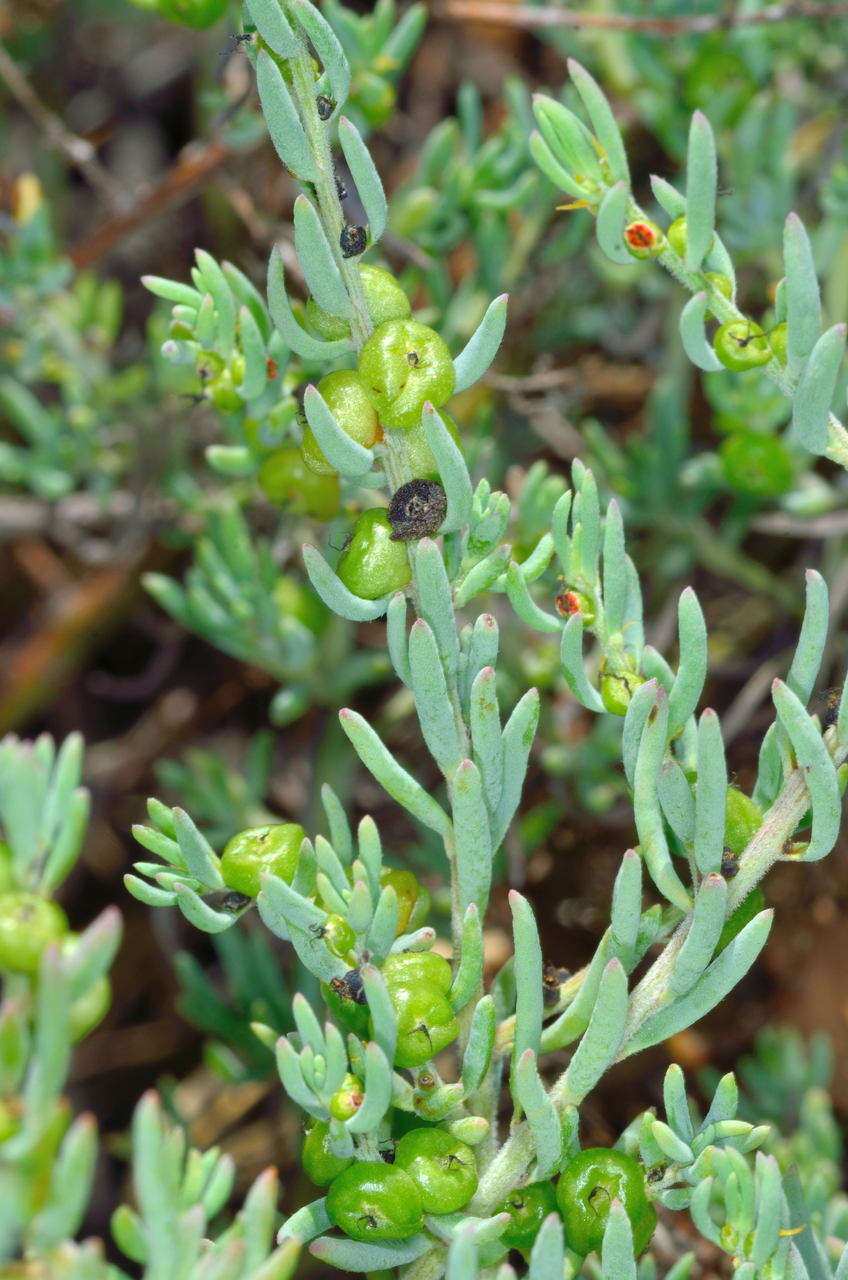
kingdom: Plantae
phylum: Tracheophyta
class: Magnoliopsida
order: Caryophyllales
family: Amaranthaceae
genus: Enchylaena
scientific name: Enchylaena tomentosa
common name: Ruby saltbush
